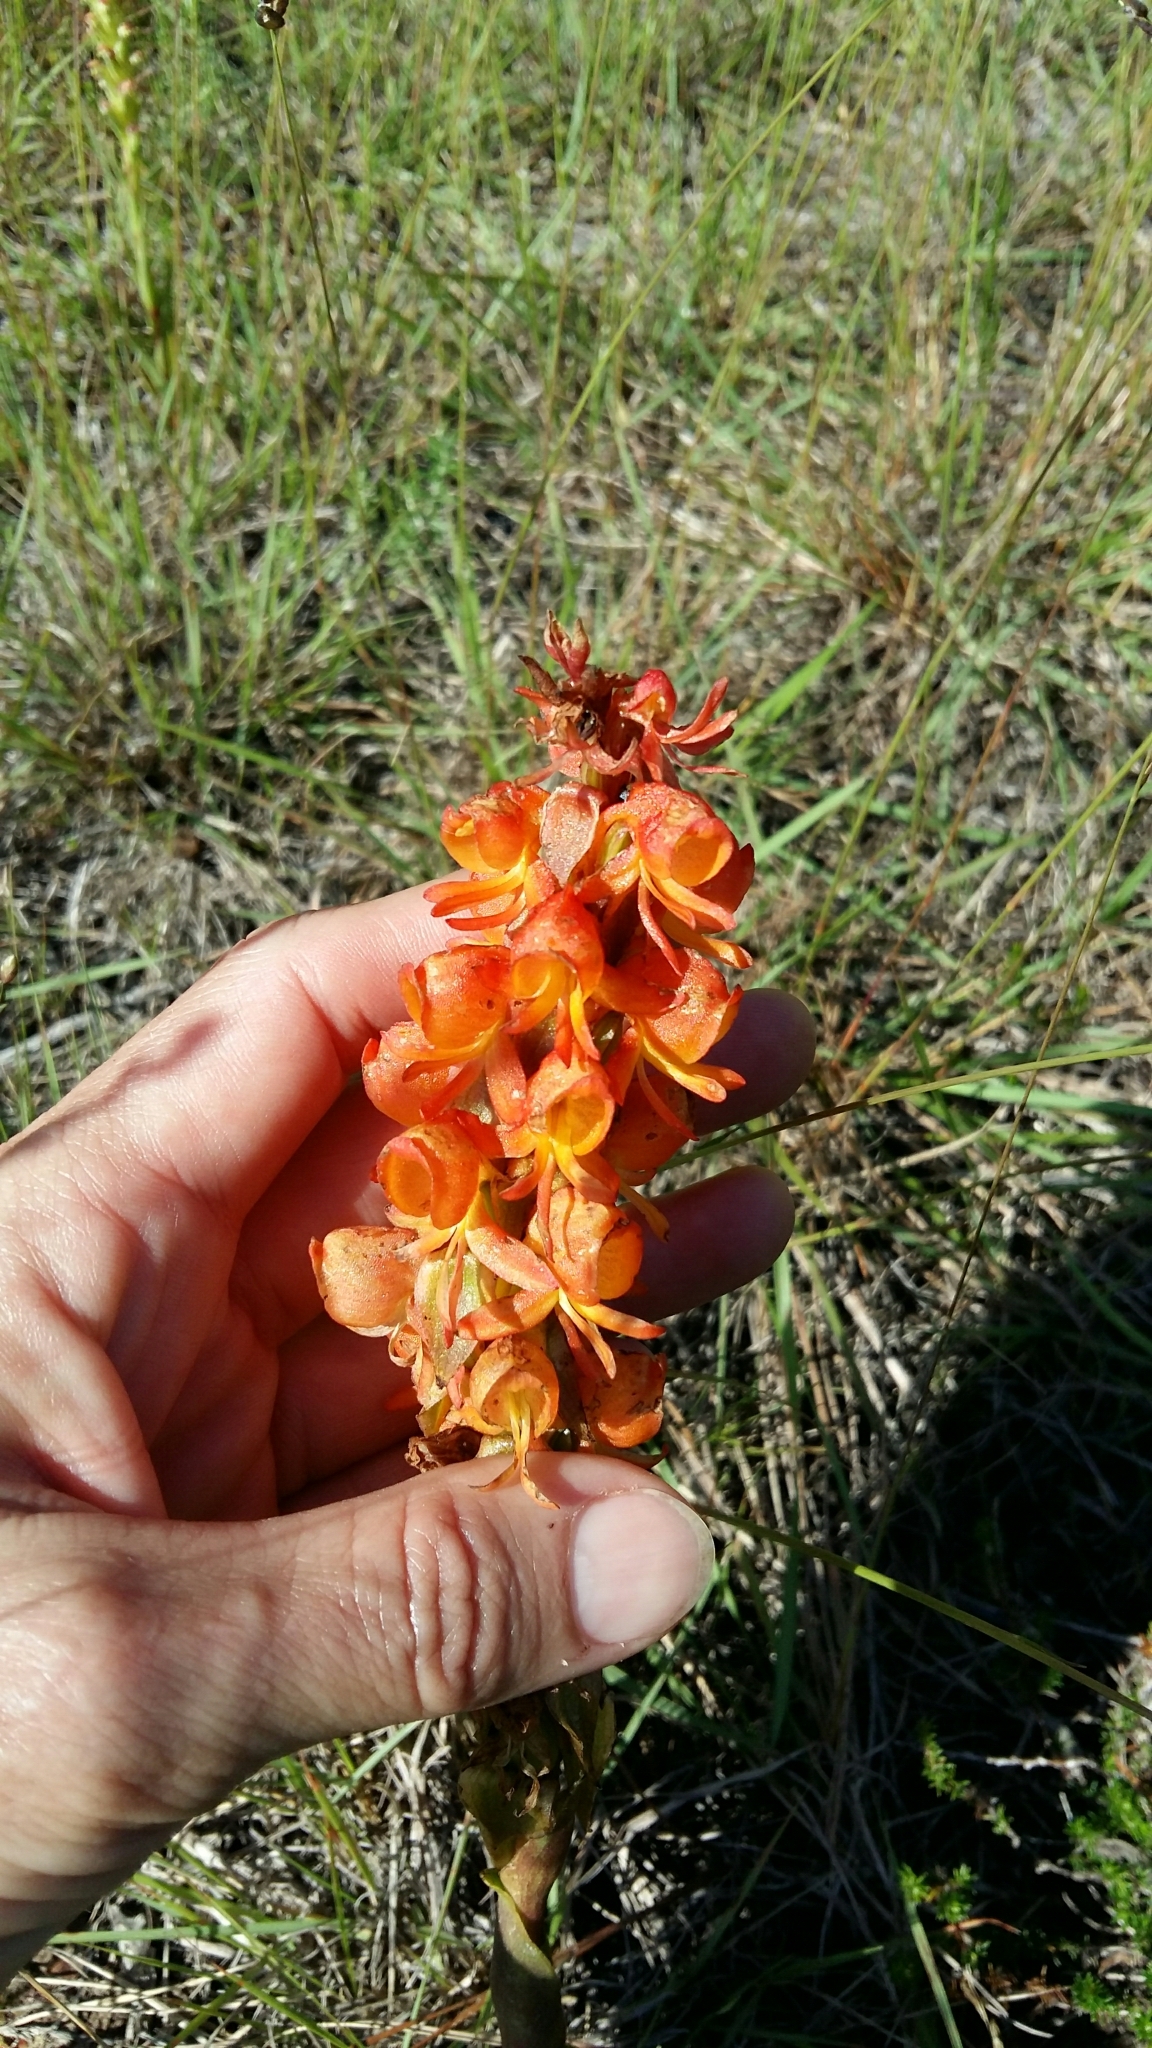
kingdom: Plantae
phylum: Tracheophyta
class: Liliopsida
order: Asparagales
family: Orchidaceae
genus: Satyrium
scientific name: Satyrium coriifolium
